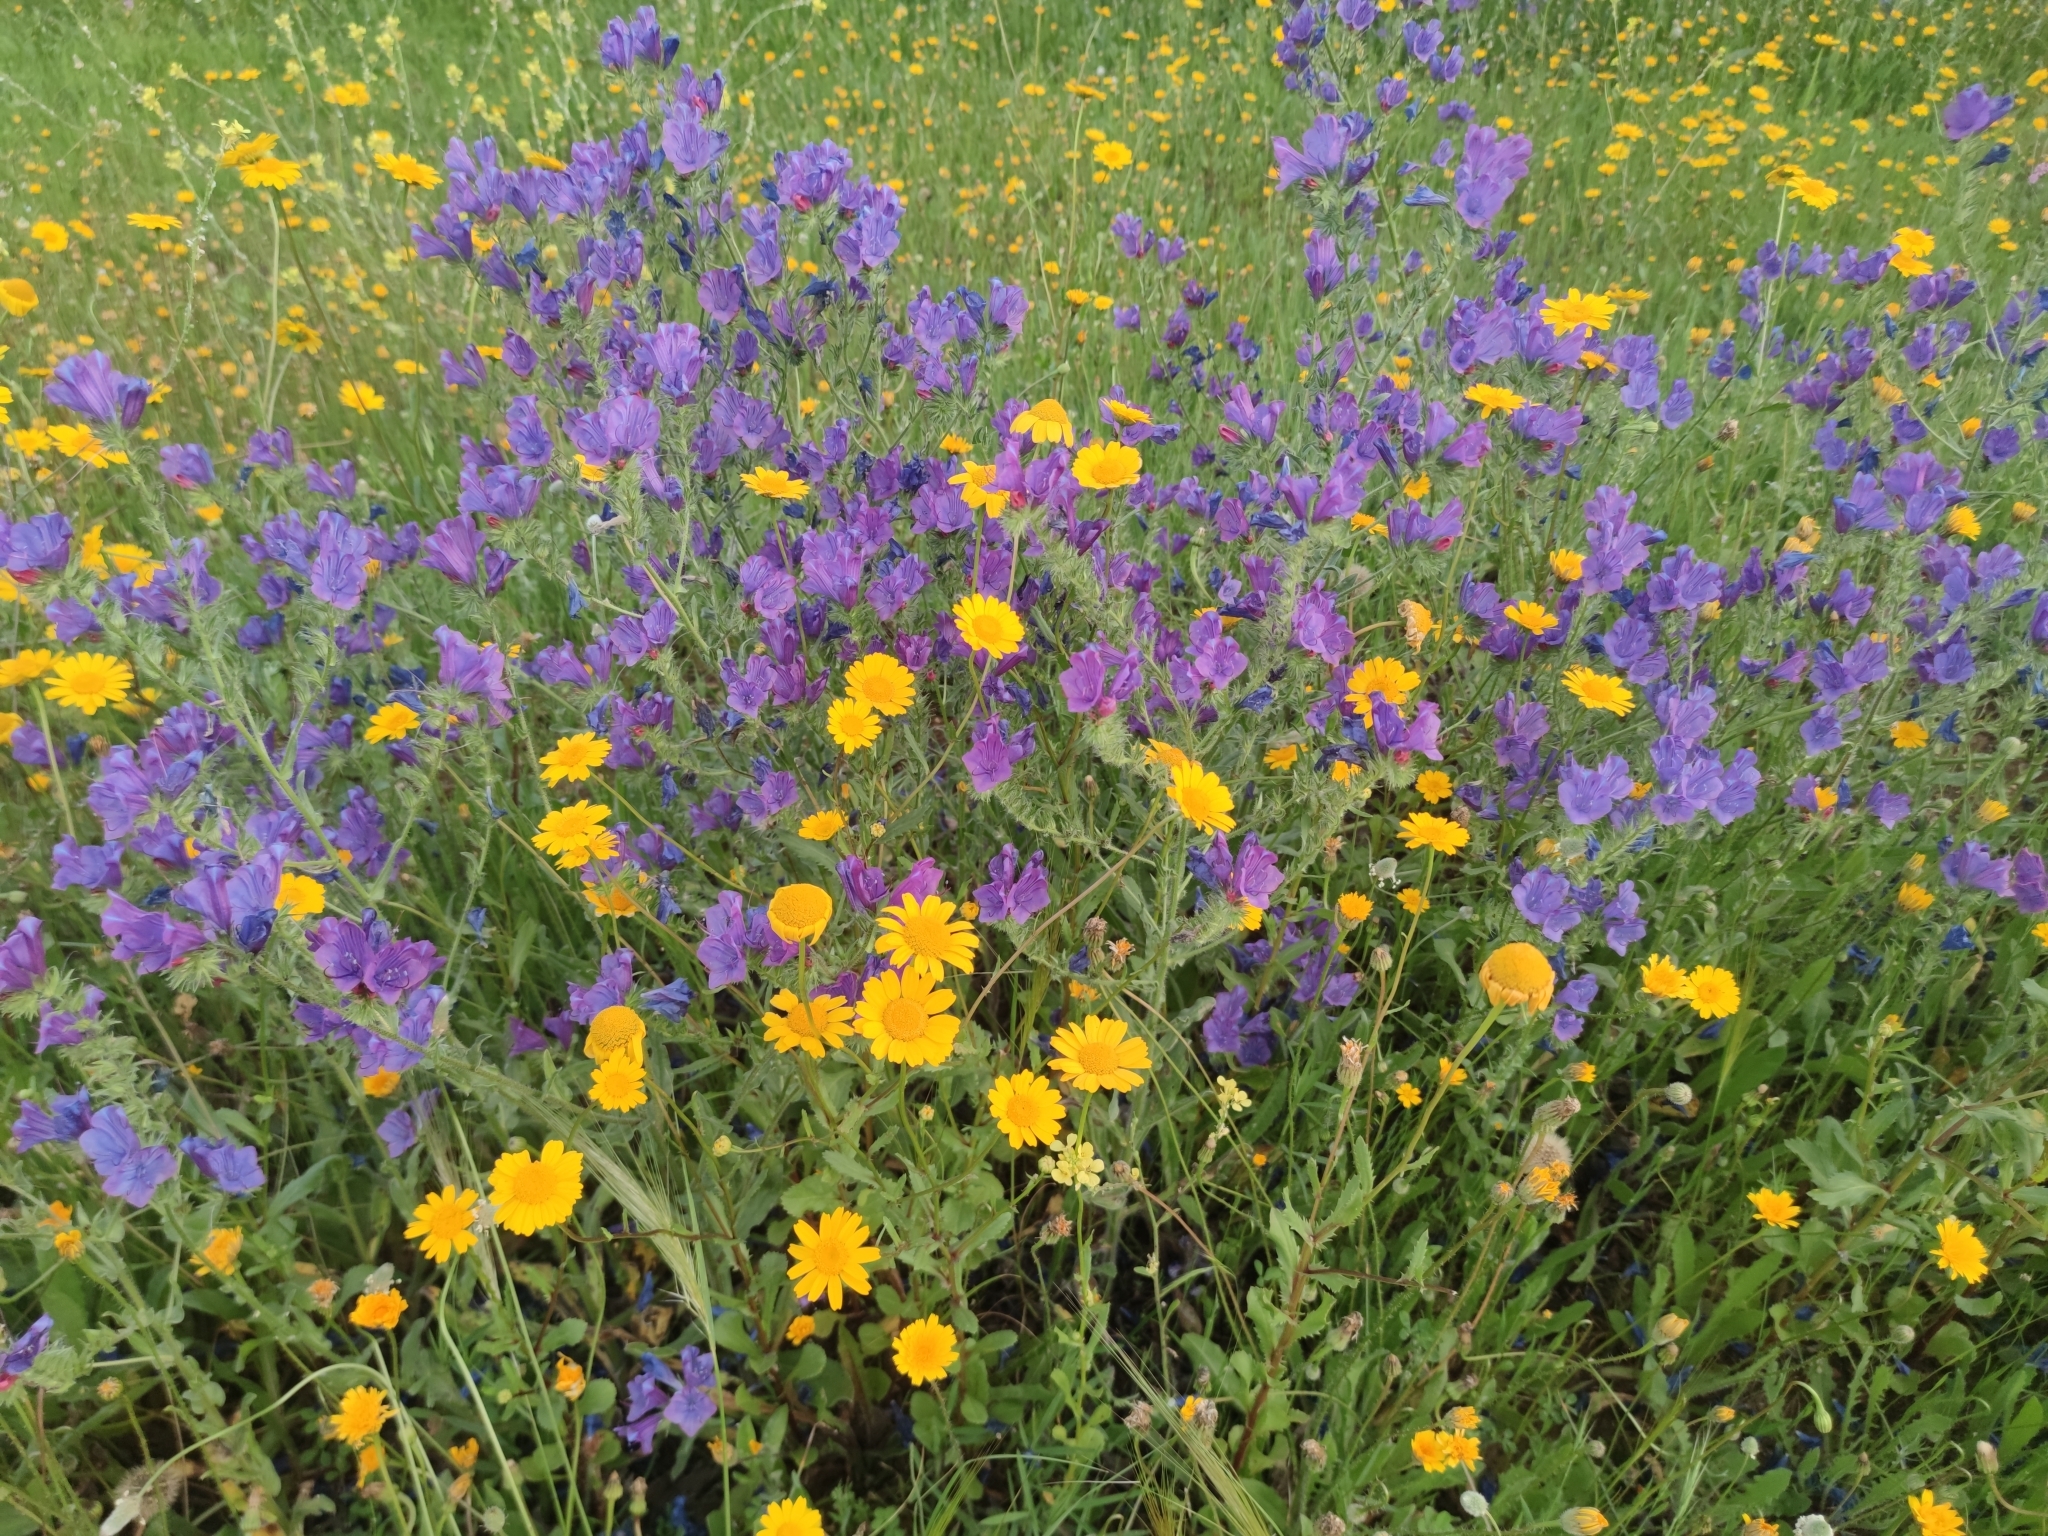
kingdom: Plantae
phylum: Tracheophyta
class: Magnoliopsida
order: Boraginales
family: Boraginaceae
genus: Echium
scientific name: Echium plantagineum
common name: Purple viper's-bugloss
